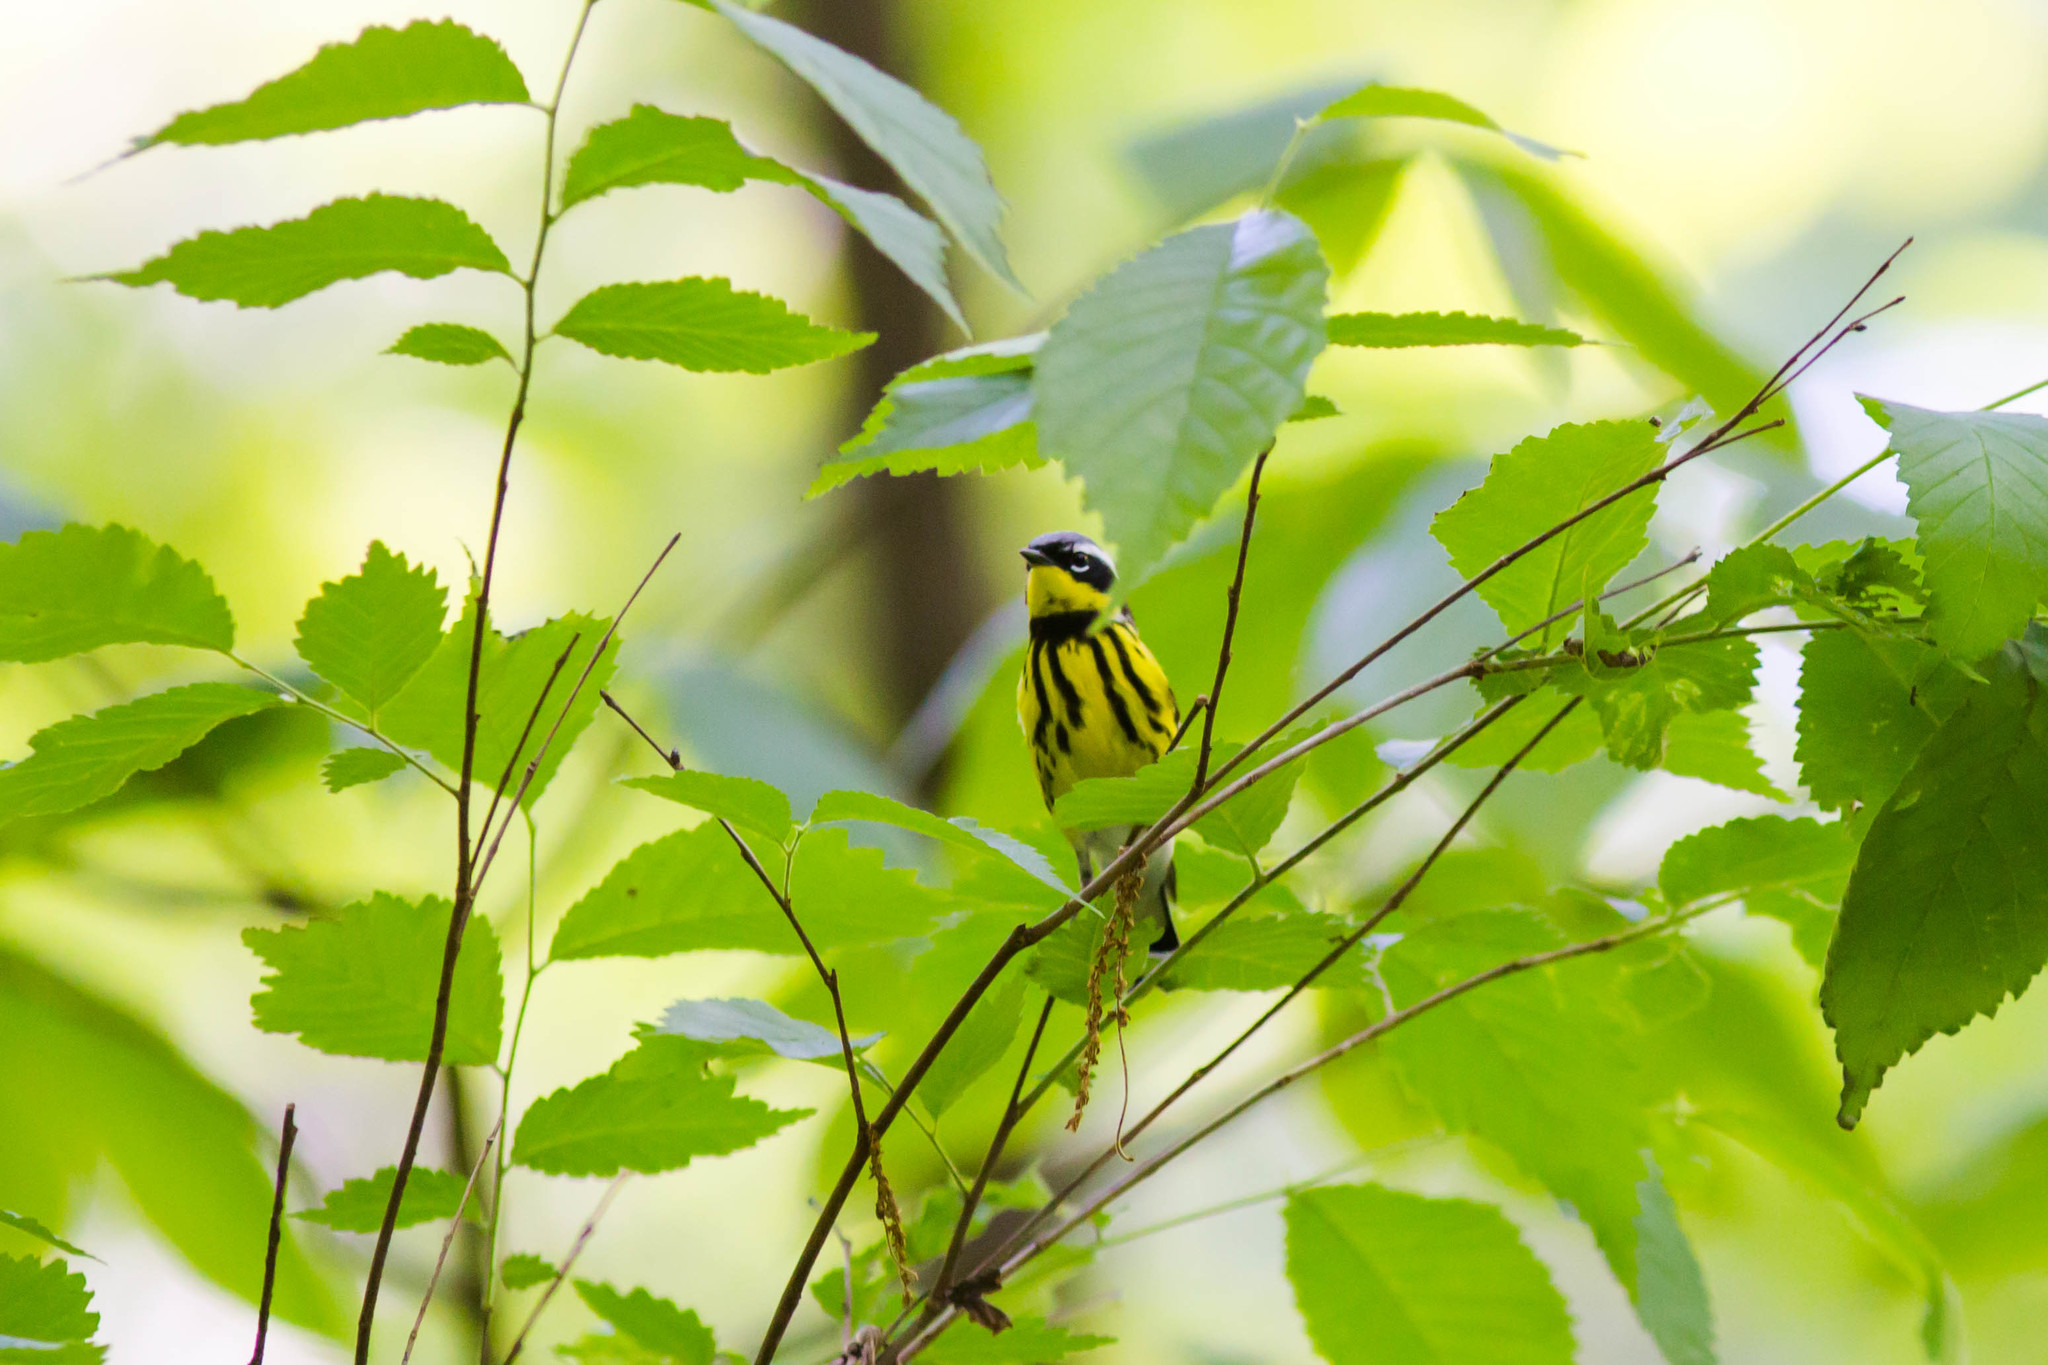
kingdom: Animalia
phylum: Chordata
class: Aves
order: Passeriformes
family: Parulidae
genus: Setophaga
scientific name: Setophaga magnolia
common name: Magnolia warbler
